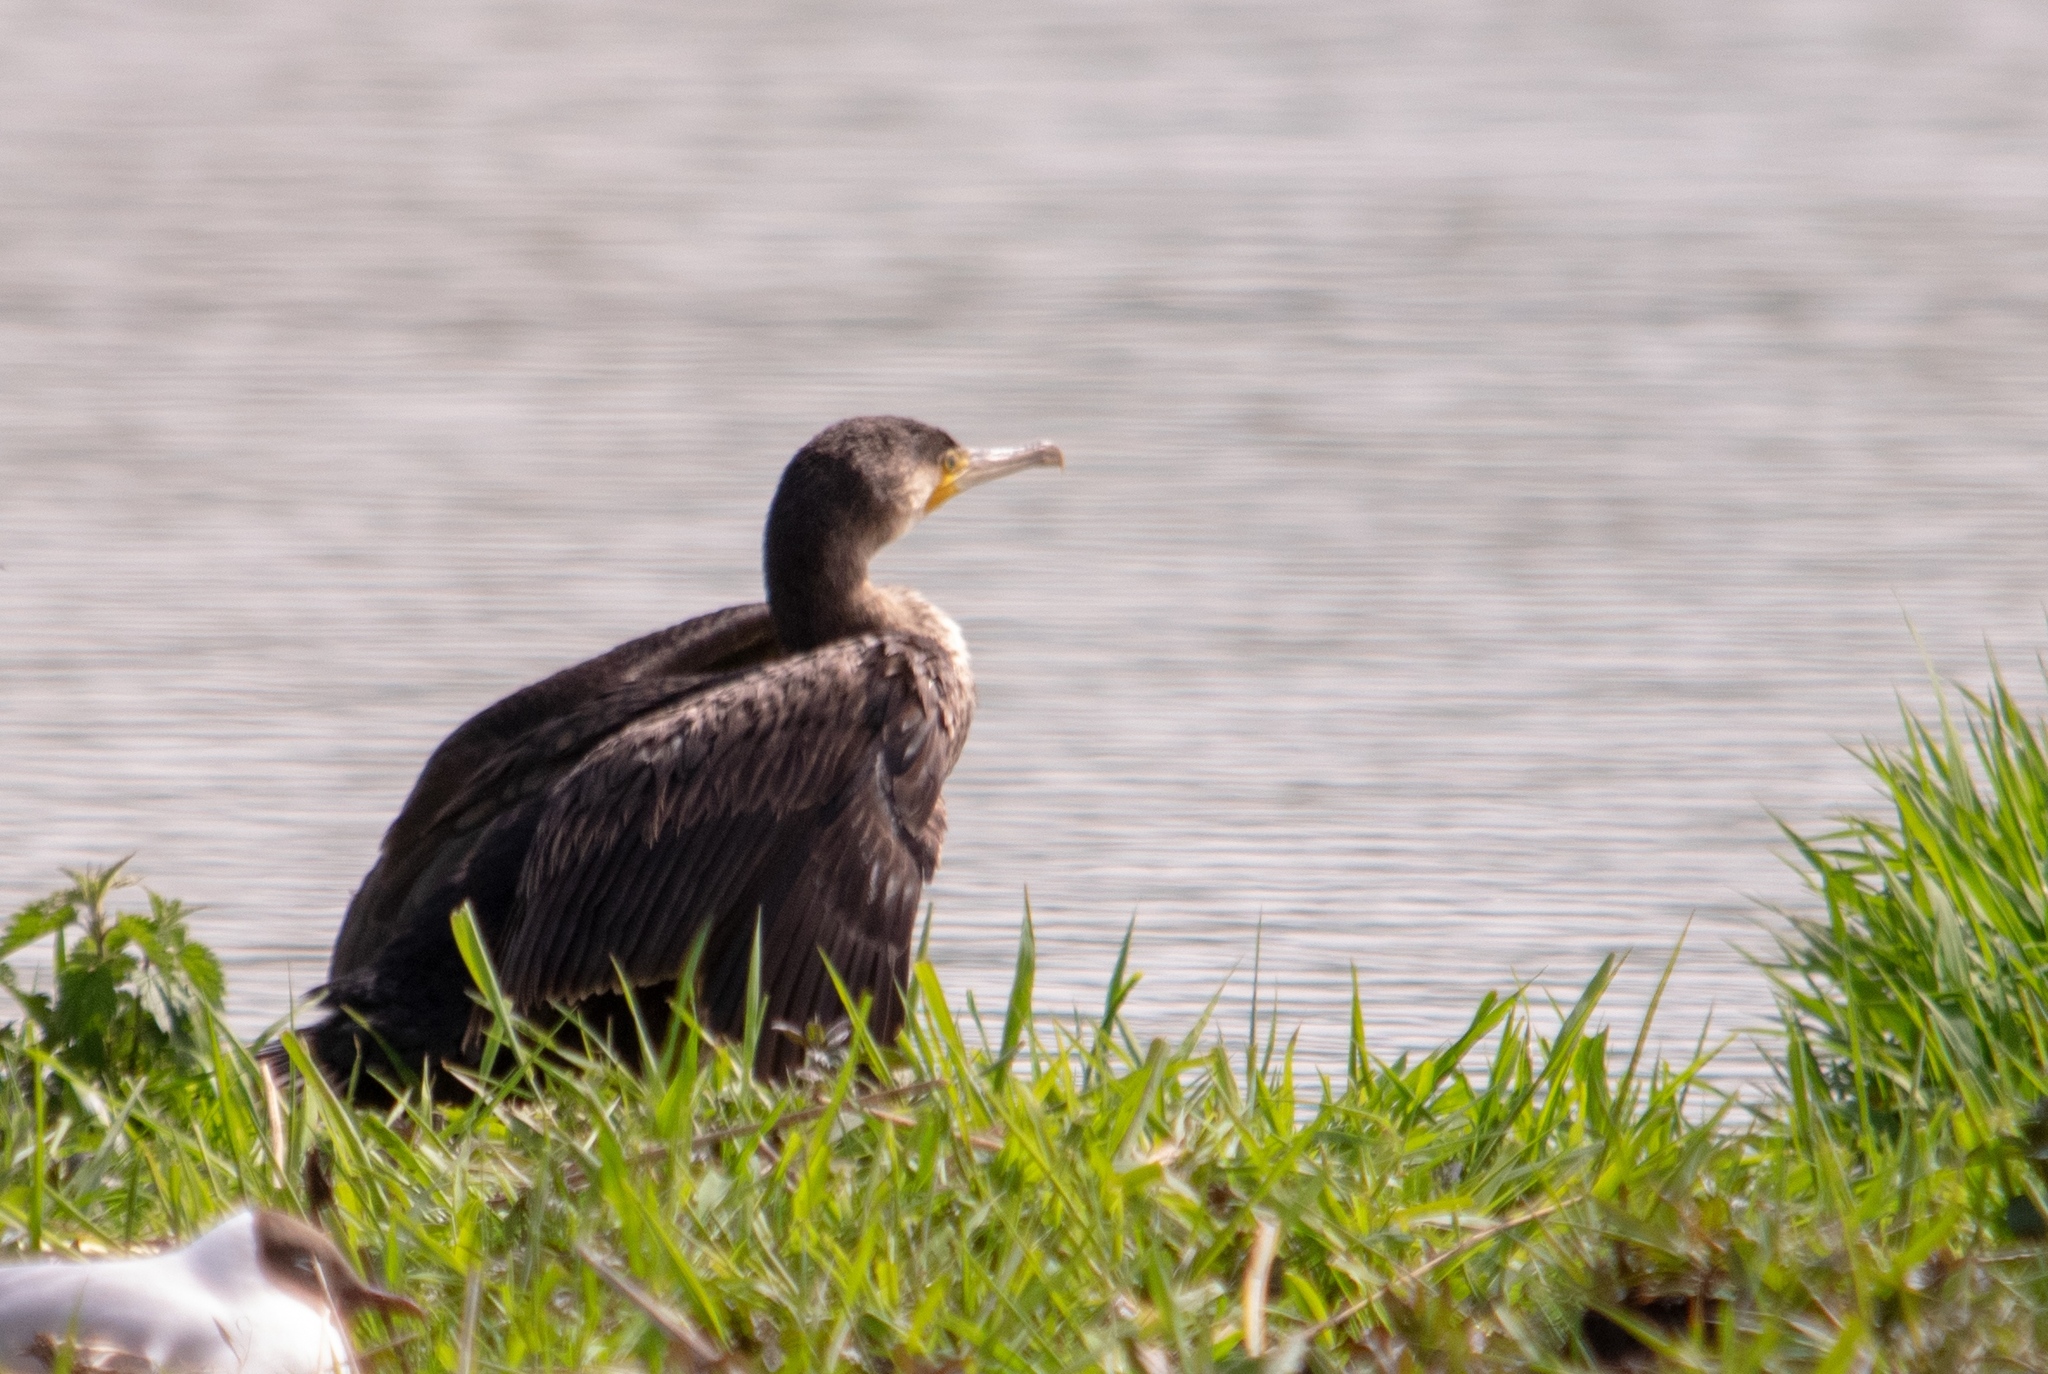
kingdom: Animalia
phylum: Chordata
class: Aves
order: Suliformes
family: Phalacrocoracidae
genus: Phalacrocorax
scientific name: Phalacrocorax carbo
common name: Great cormorant
